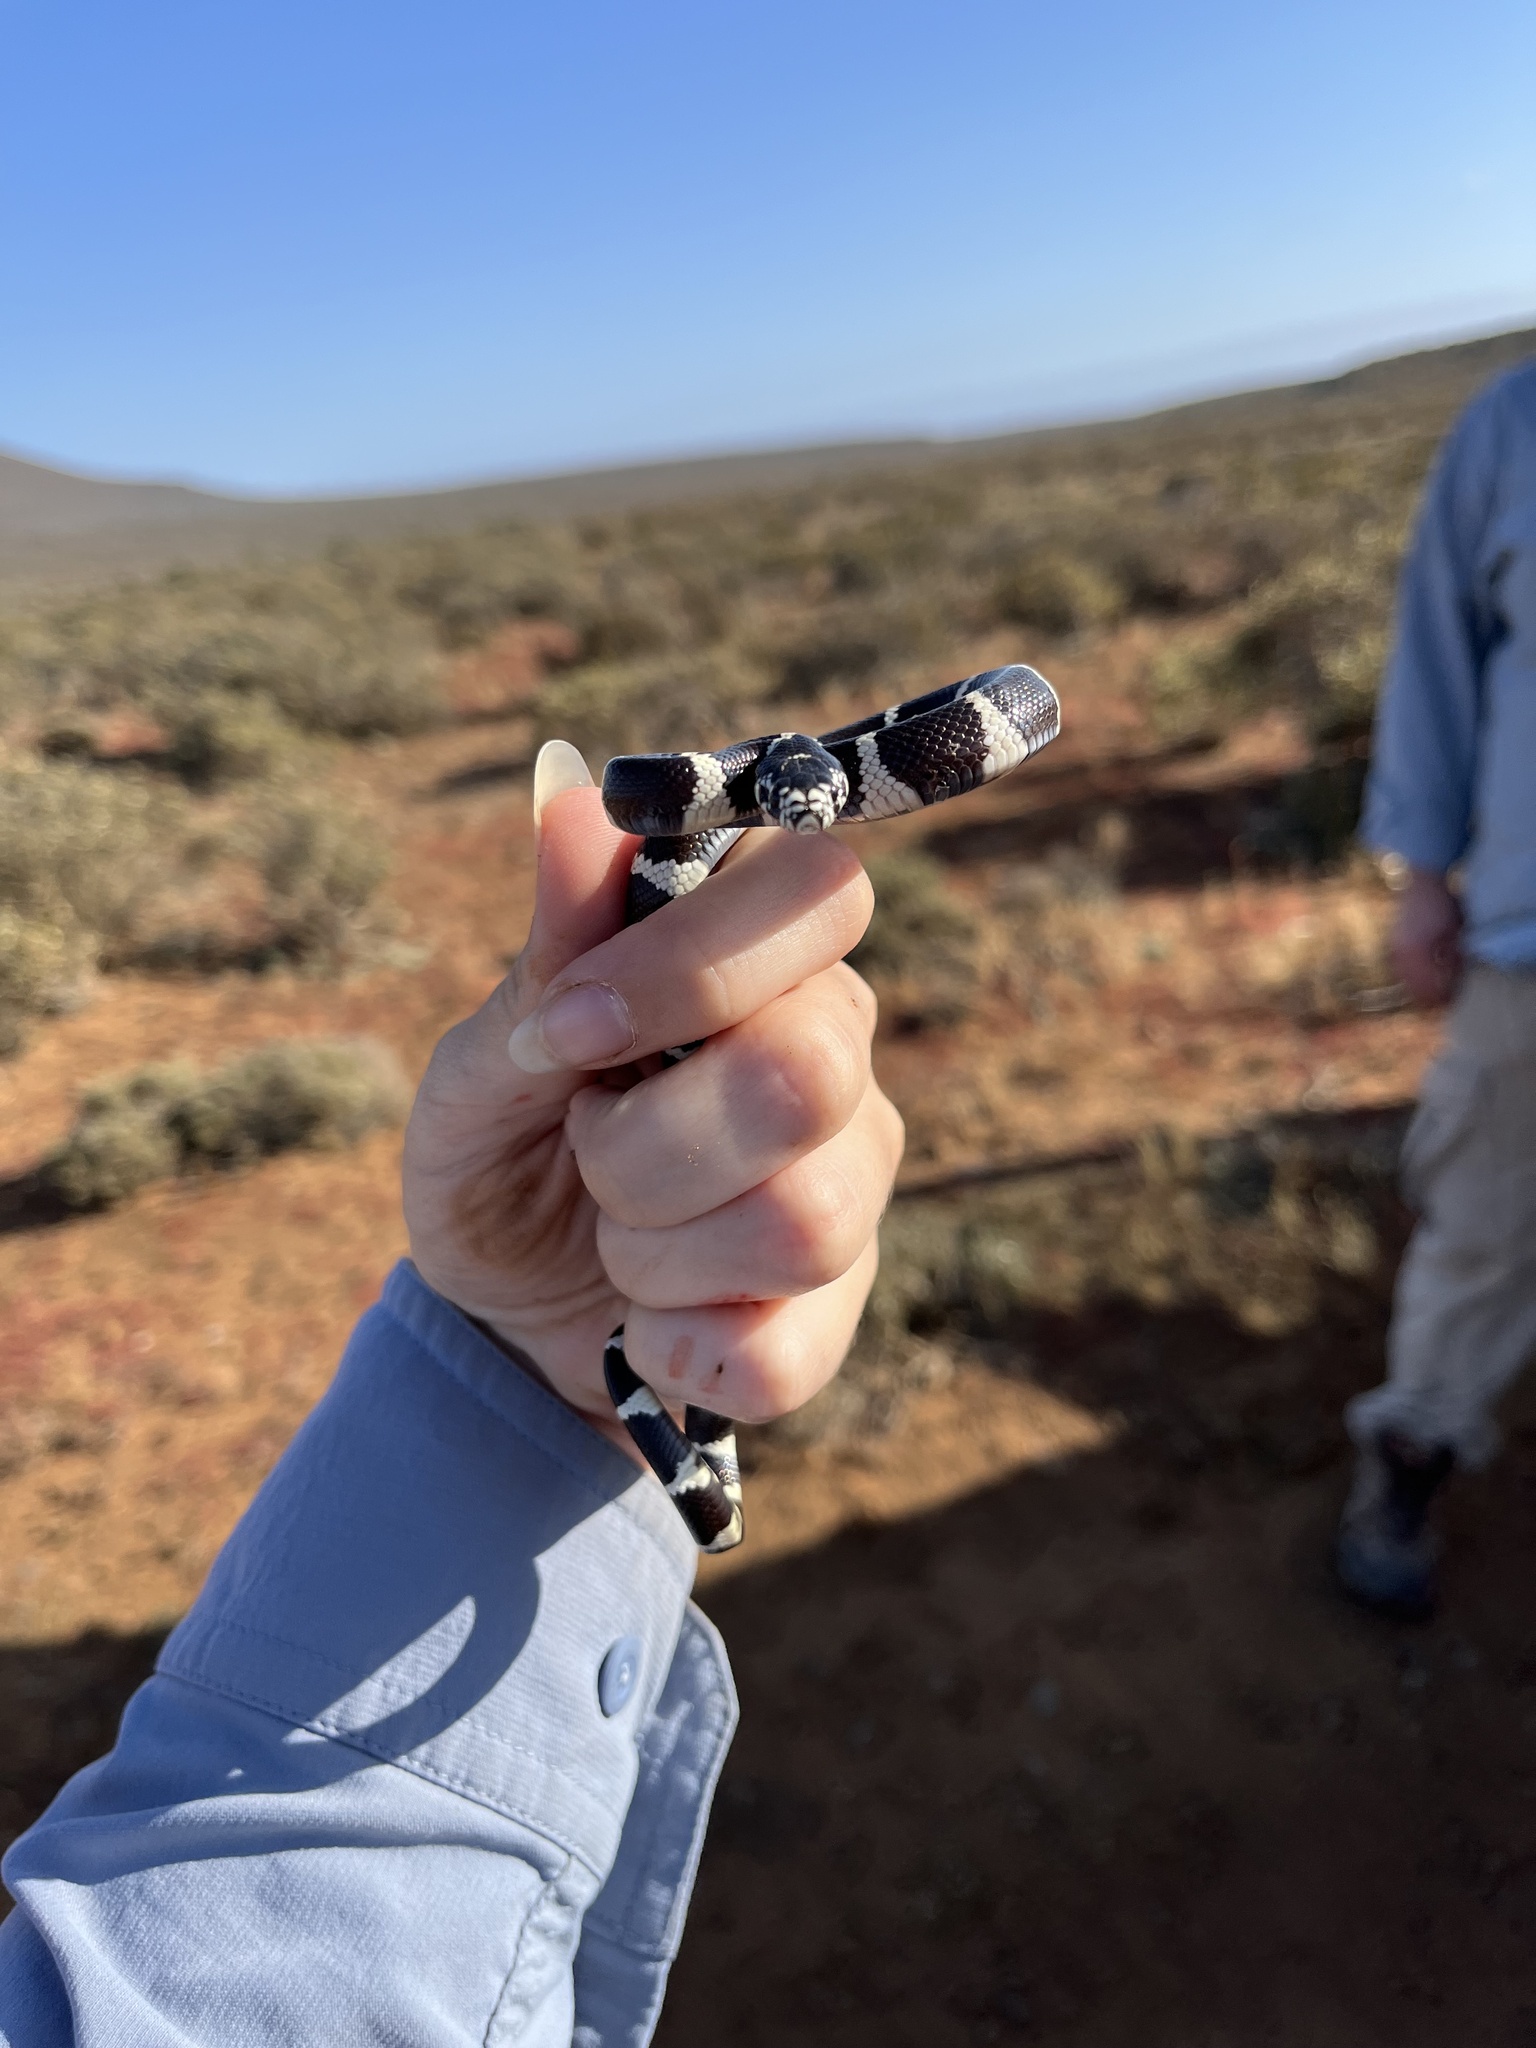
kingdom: Animalia
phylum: Chordata
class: Squamata
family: Colubridae
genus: Lampropeltis
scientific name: Lampropeltis californiae
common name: California kingsnake
